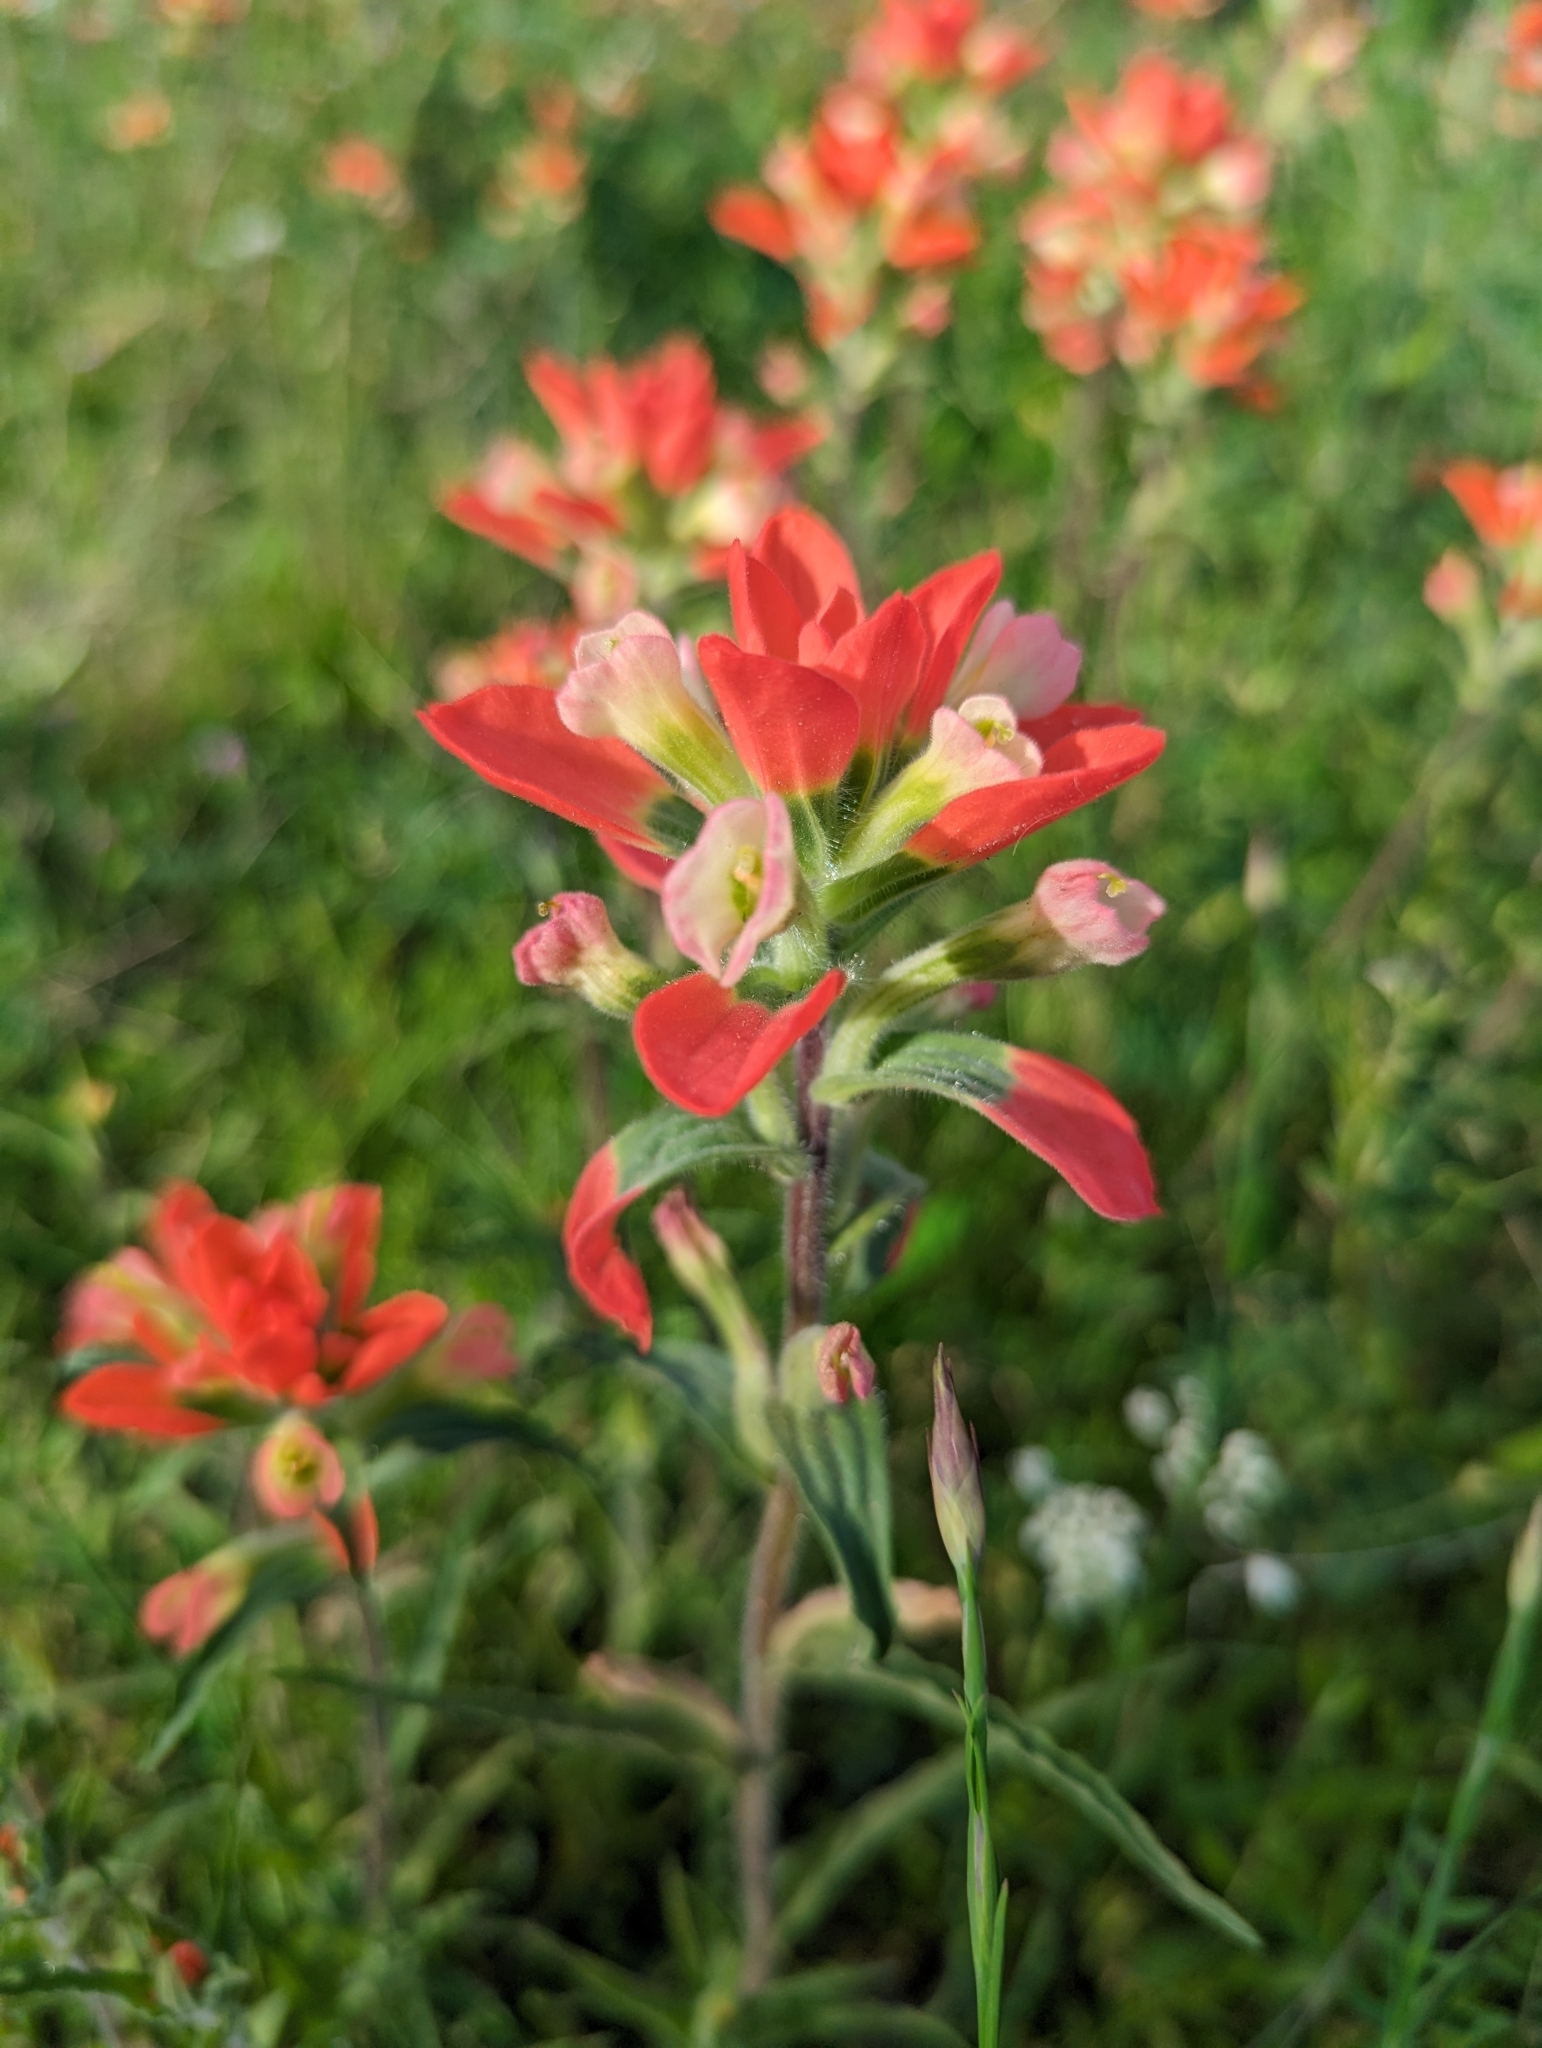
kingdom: Plantae
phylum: Tracheophyta
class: Magnoliopsida
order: Lamiales
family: Orobanchaceae
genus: Castilleja
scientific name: Castilleja indivisa
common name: Texas paintbrush
